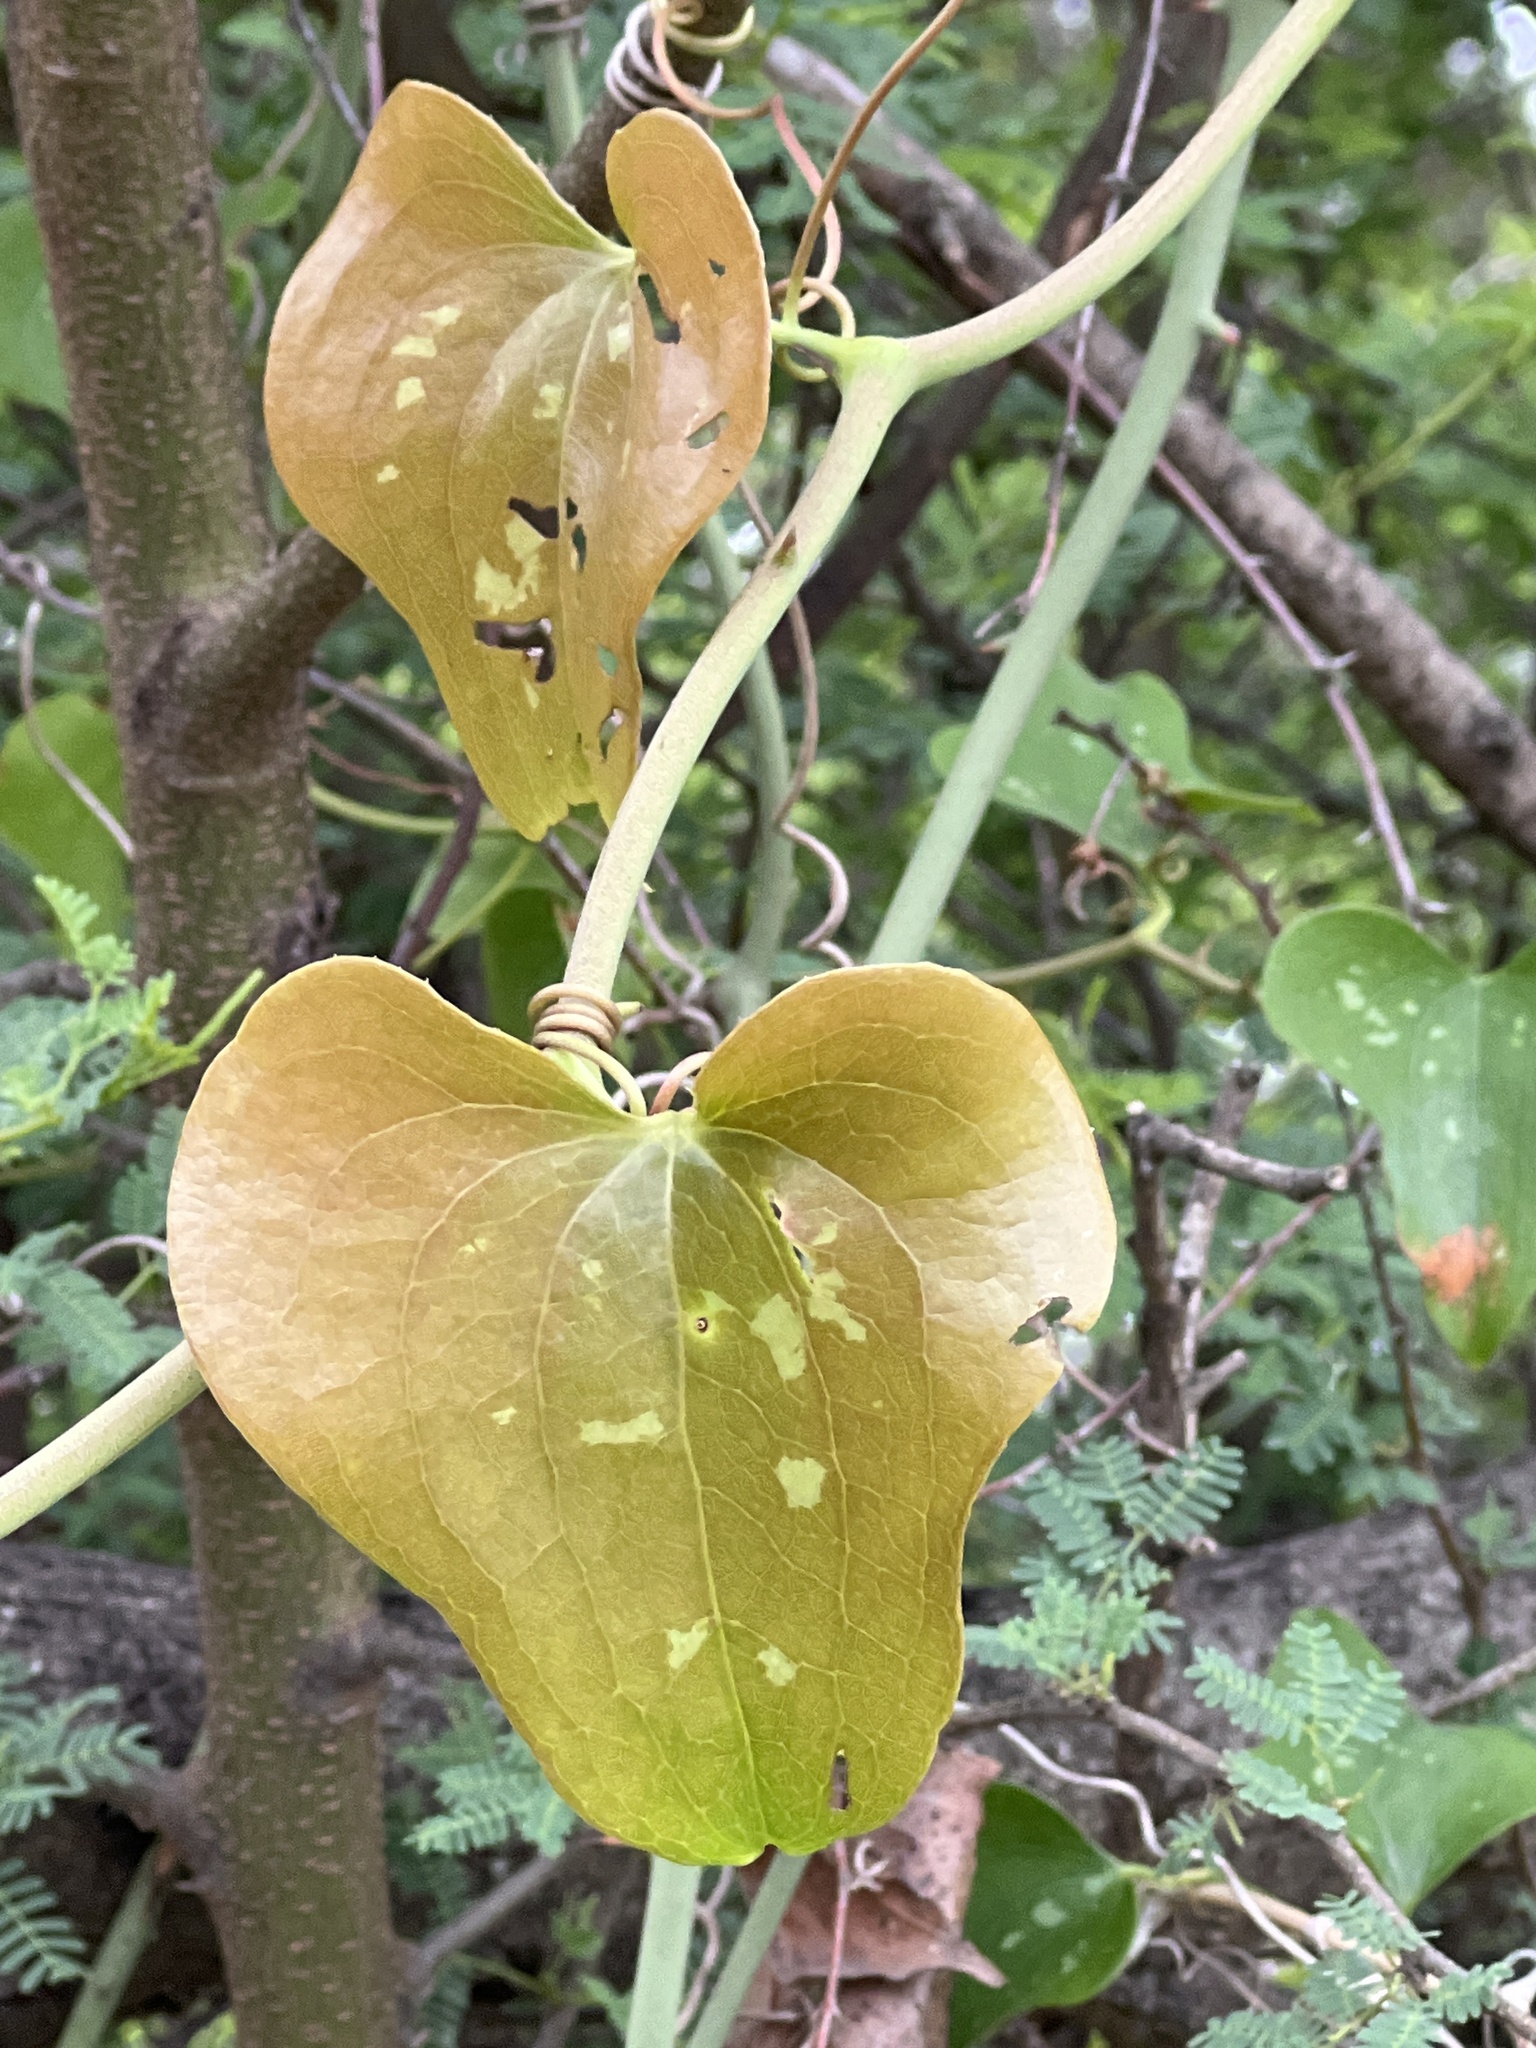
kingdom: Plantae
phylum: Tracheophyta
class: Liliopsida
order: Liliales
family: Smilacaceae
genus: Smilax
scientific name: Smilax bona-nox
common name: Catbrier
